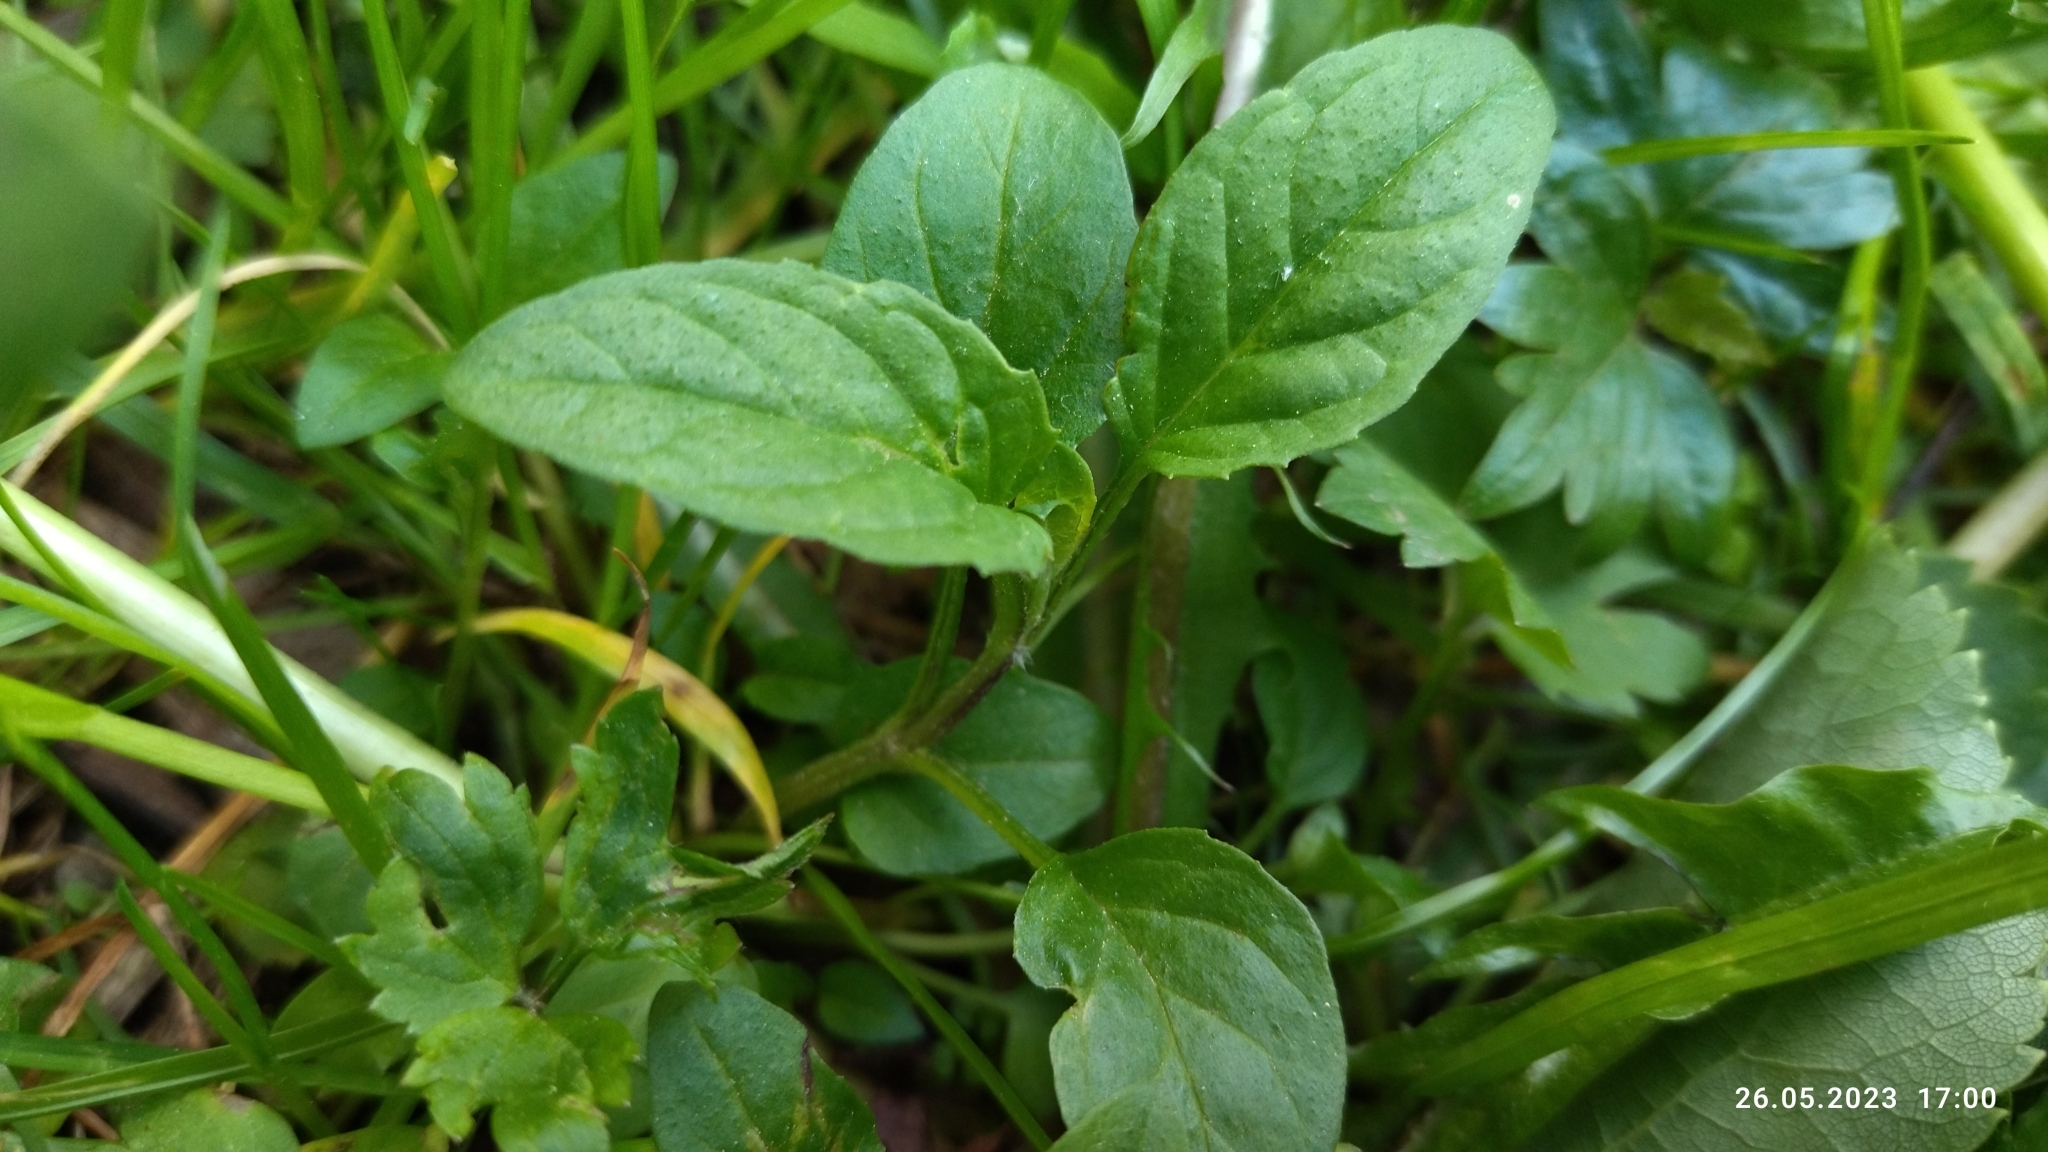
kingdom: Plantae
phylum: Tracheophyta
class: Magnoliopsida
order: Lamiales
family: Lamiaceae
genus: Prunella
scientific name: Prunella vulgaris
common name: Heal-all
